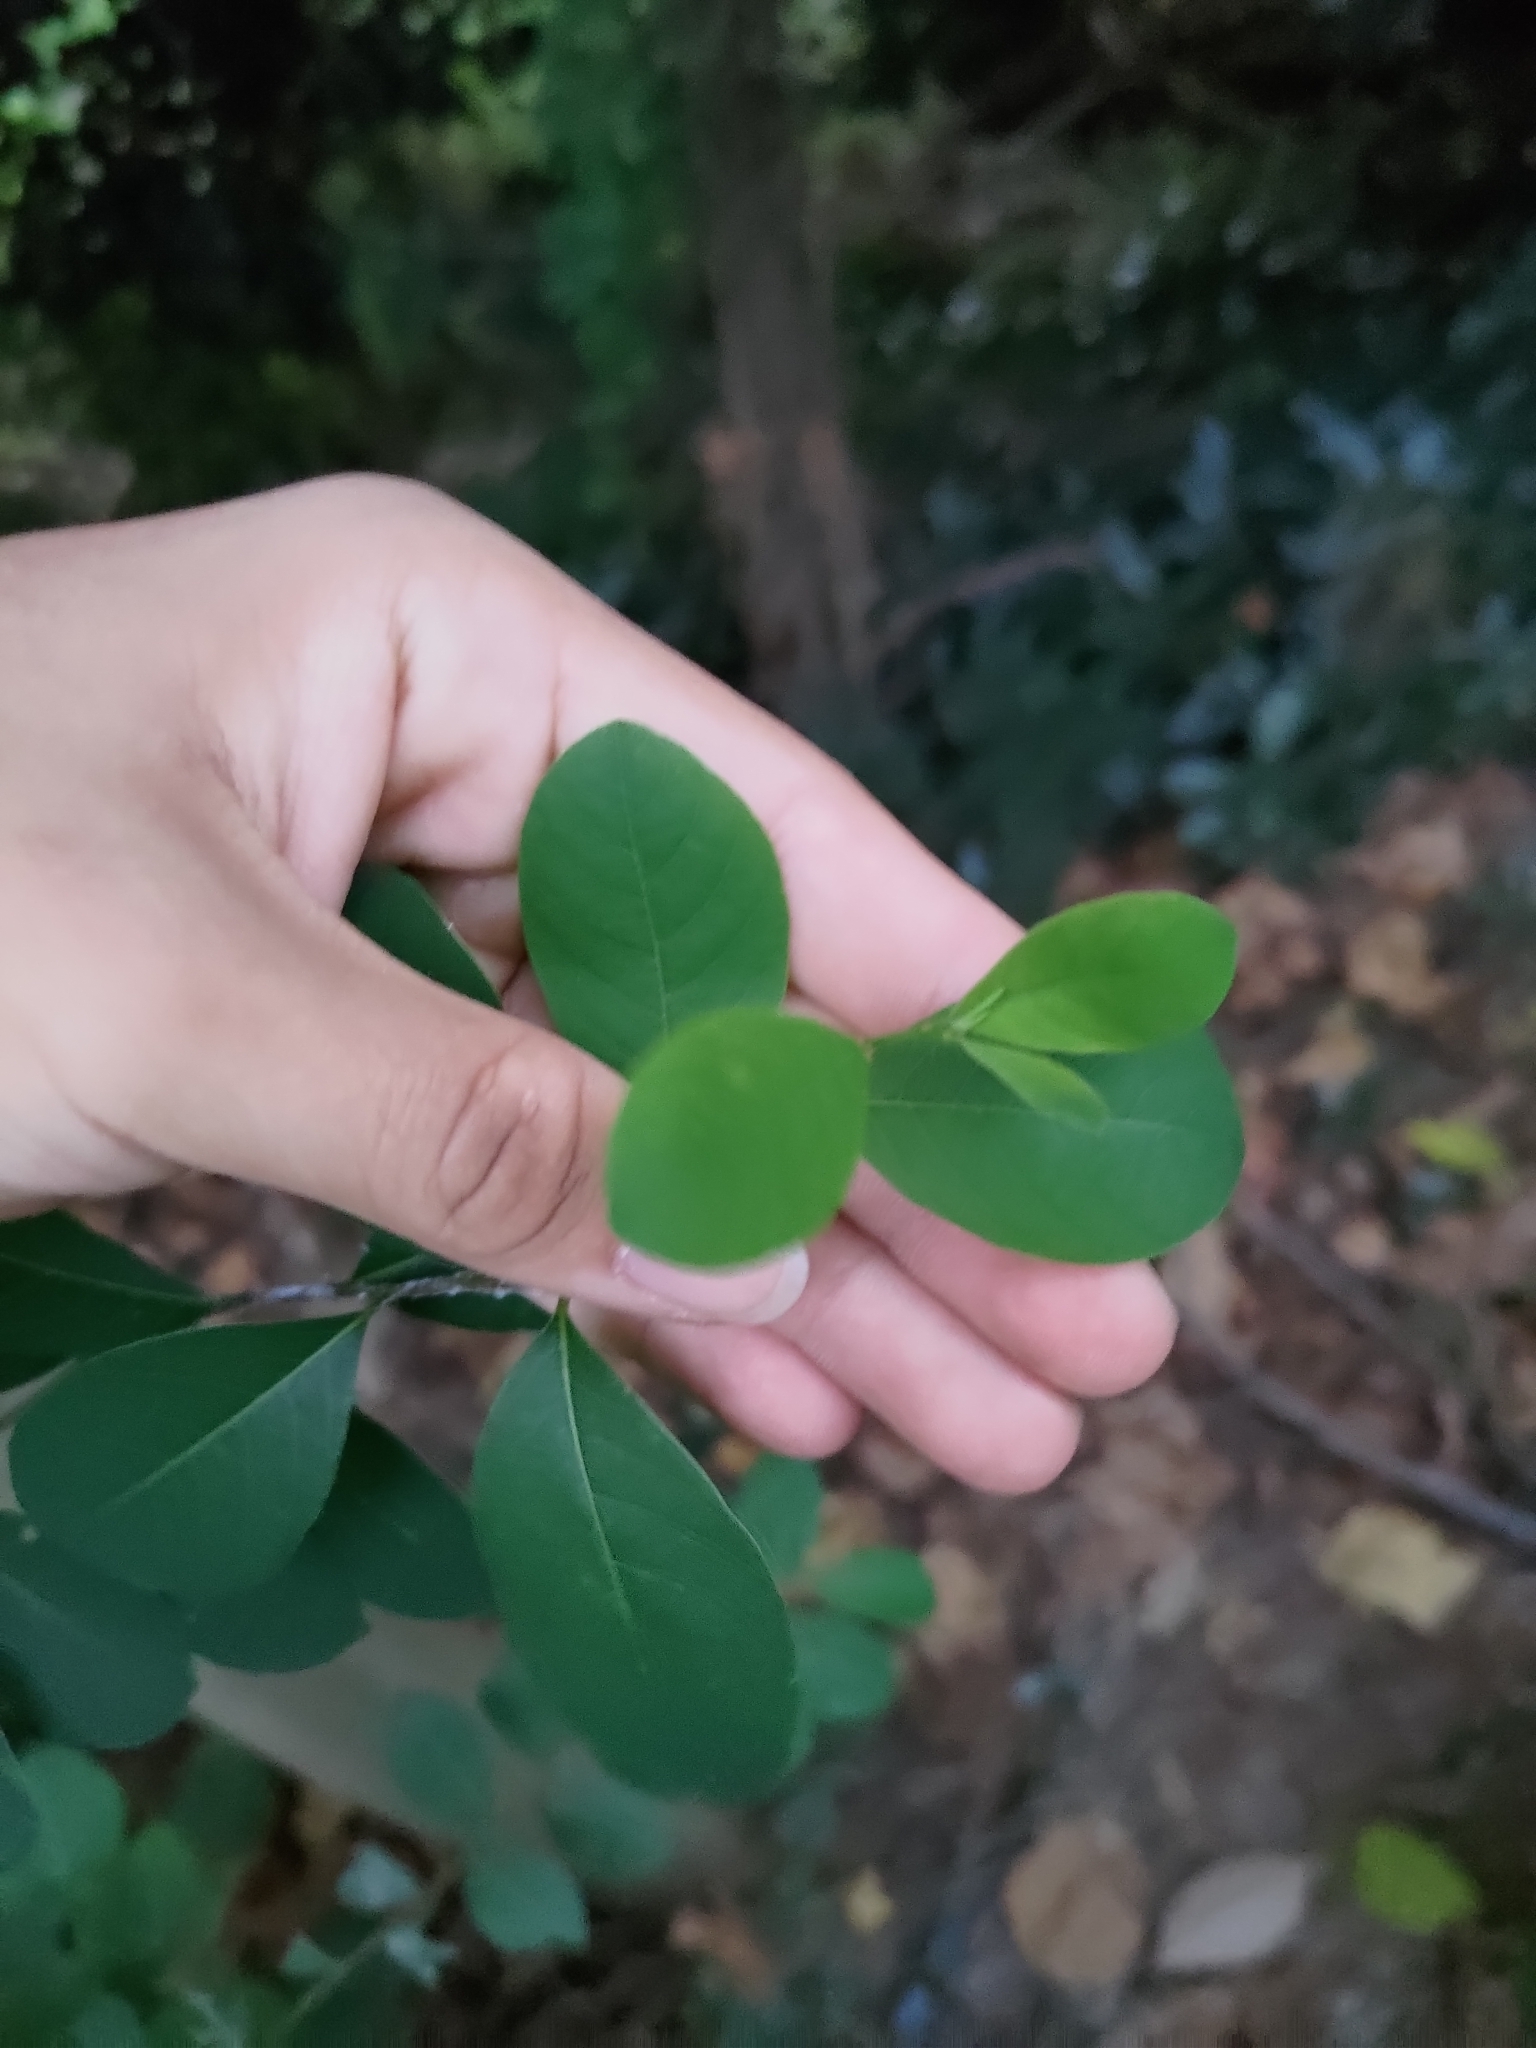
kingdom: Plantae
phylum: Tracheophyta
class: Magnoliopsida
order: Malpighiales
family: Phyllanthaceae
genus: Flueggea
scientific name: Flueggea virosa
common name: Common bushweed
